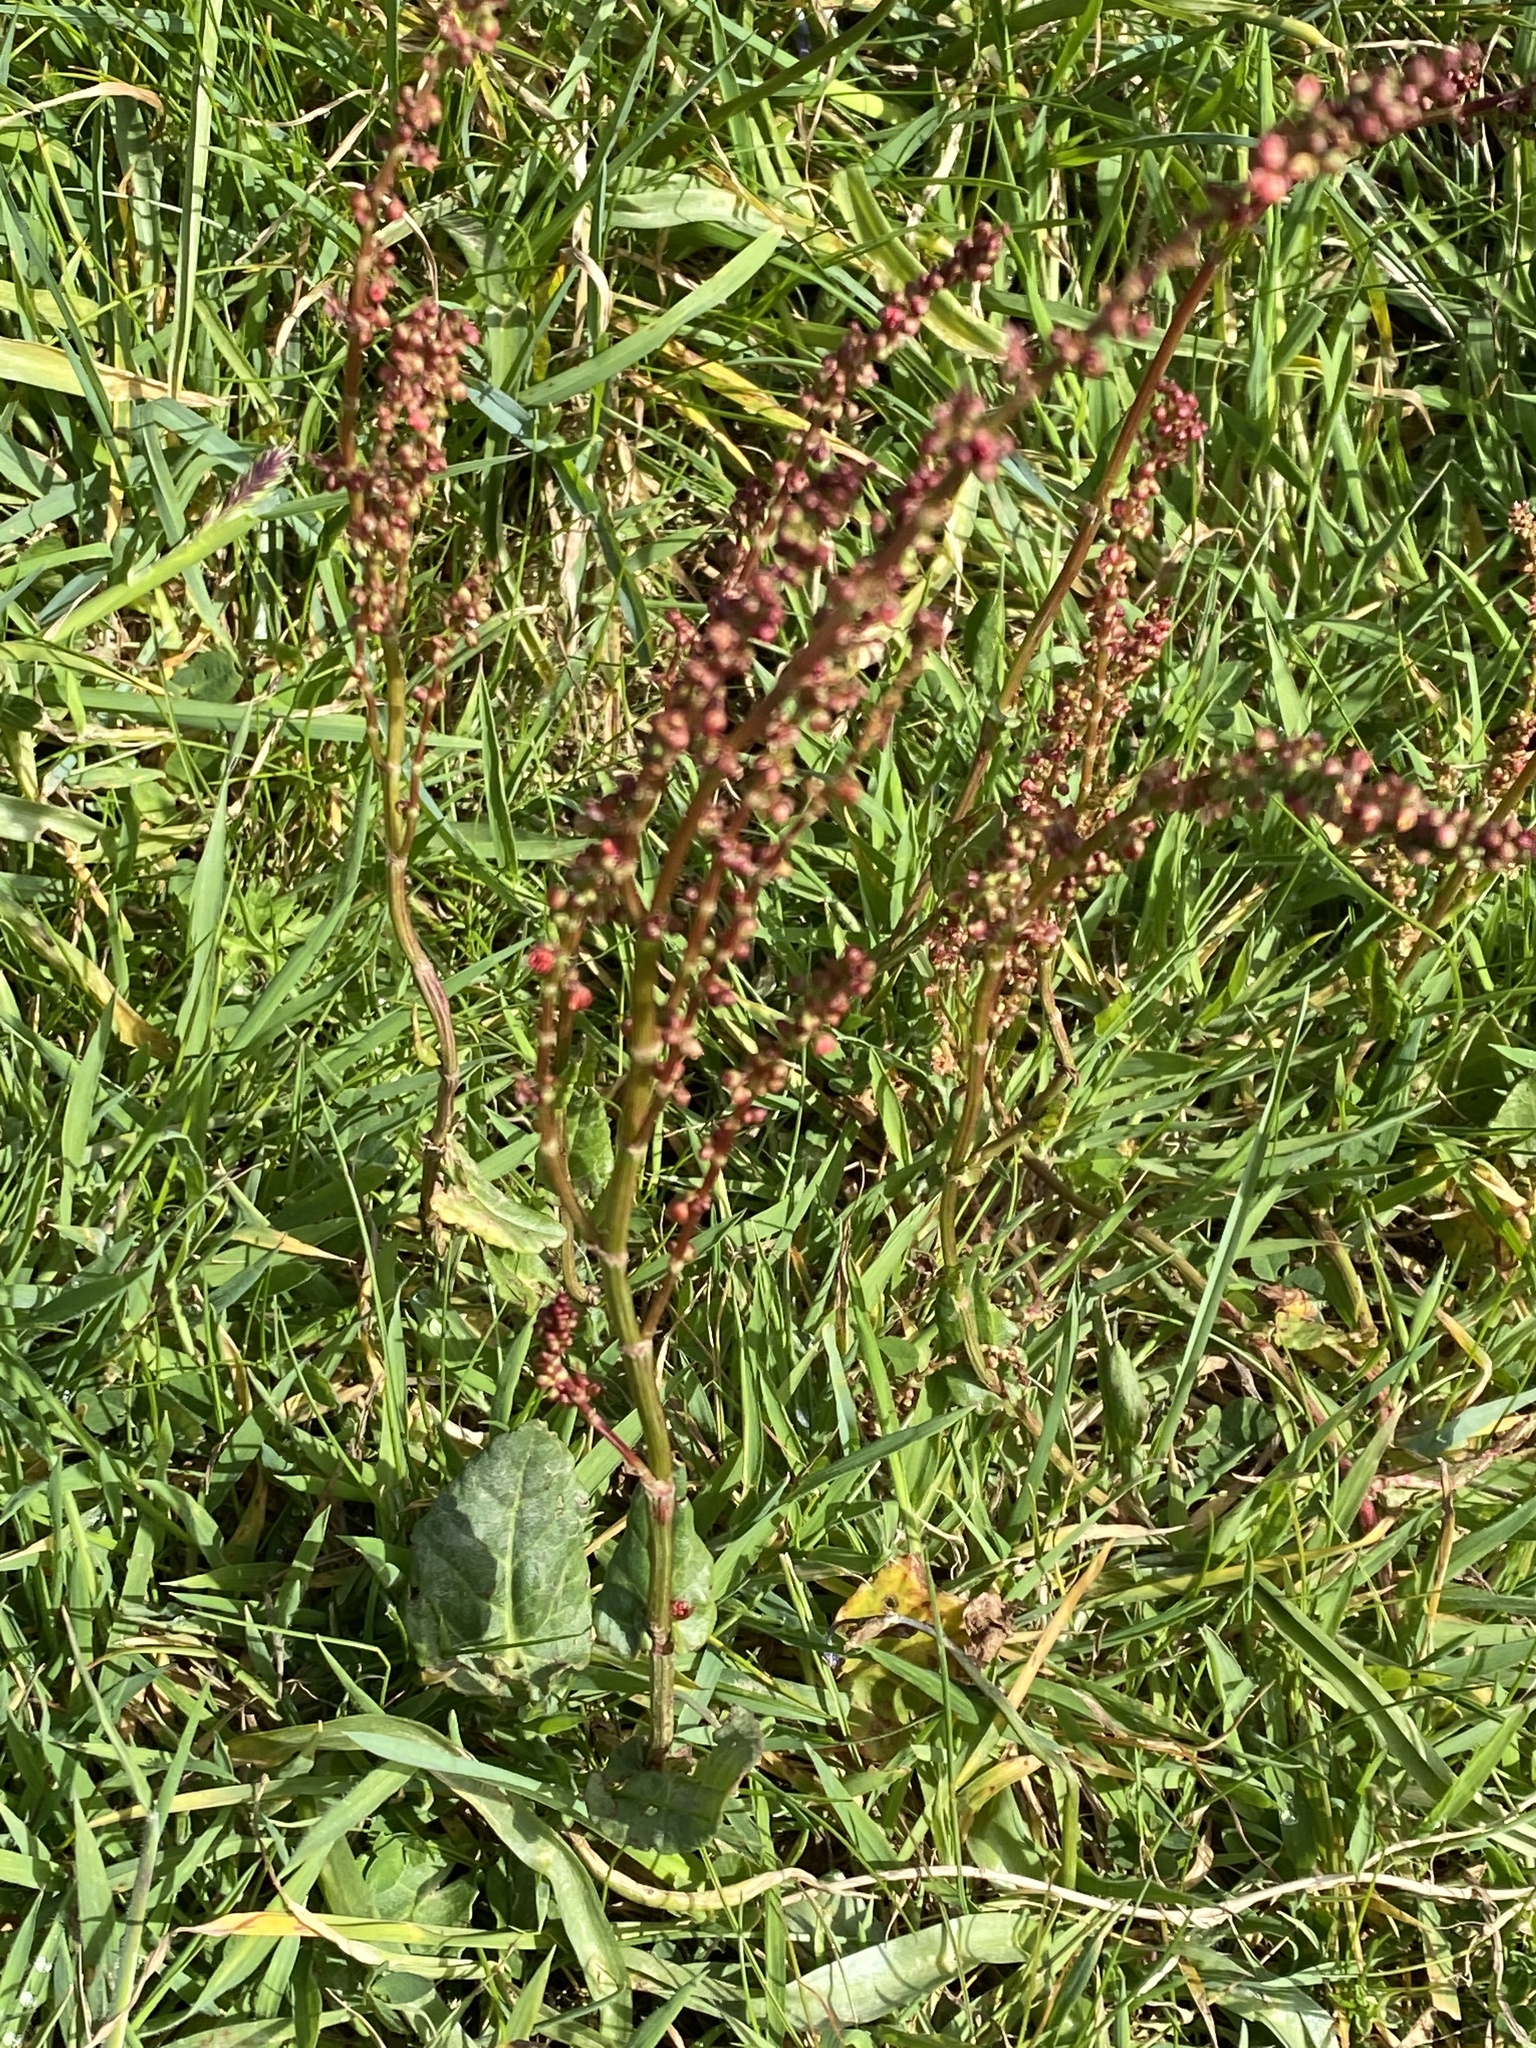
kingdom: Plantae
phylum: Tracheophyta
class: Magnoliopsida
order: Caryophyllales
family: Polygonaceae
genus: Rumex
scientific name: Rumex acetosa
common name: Garden sorrel
